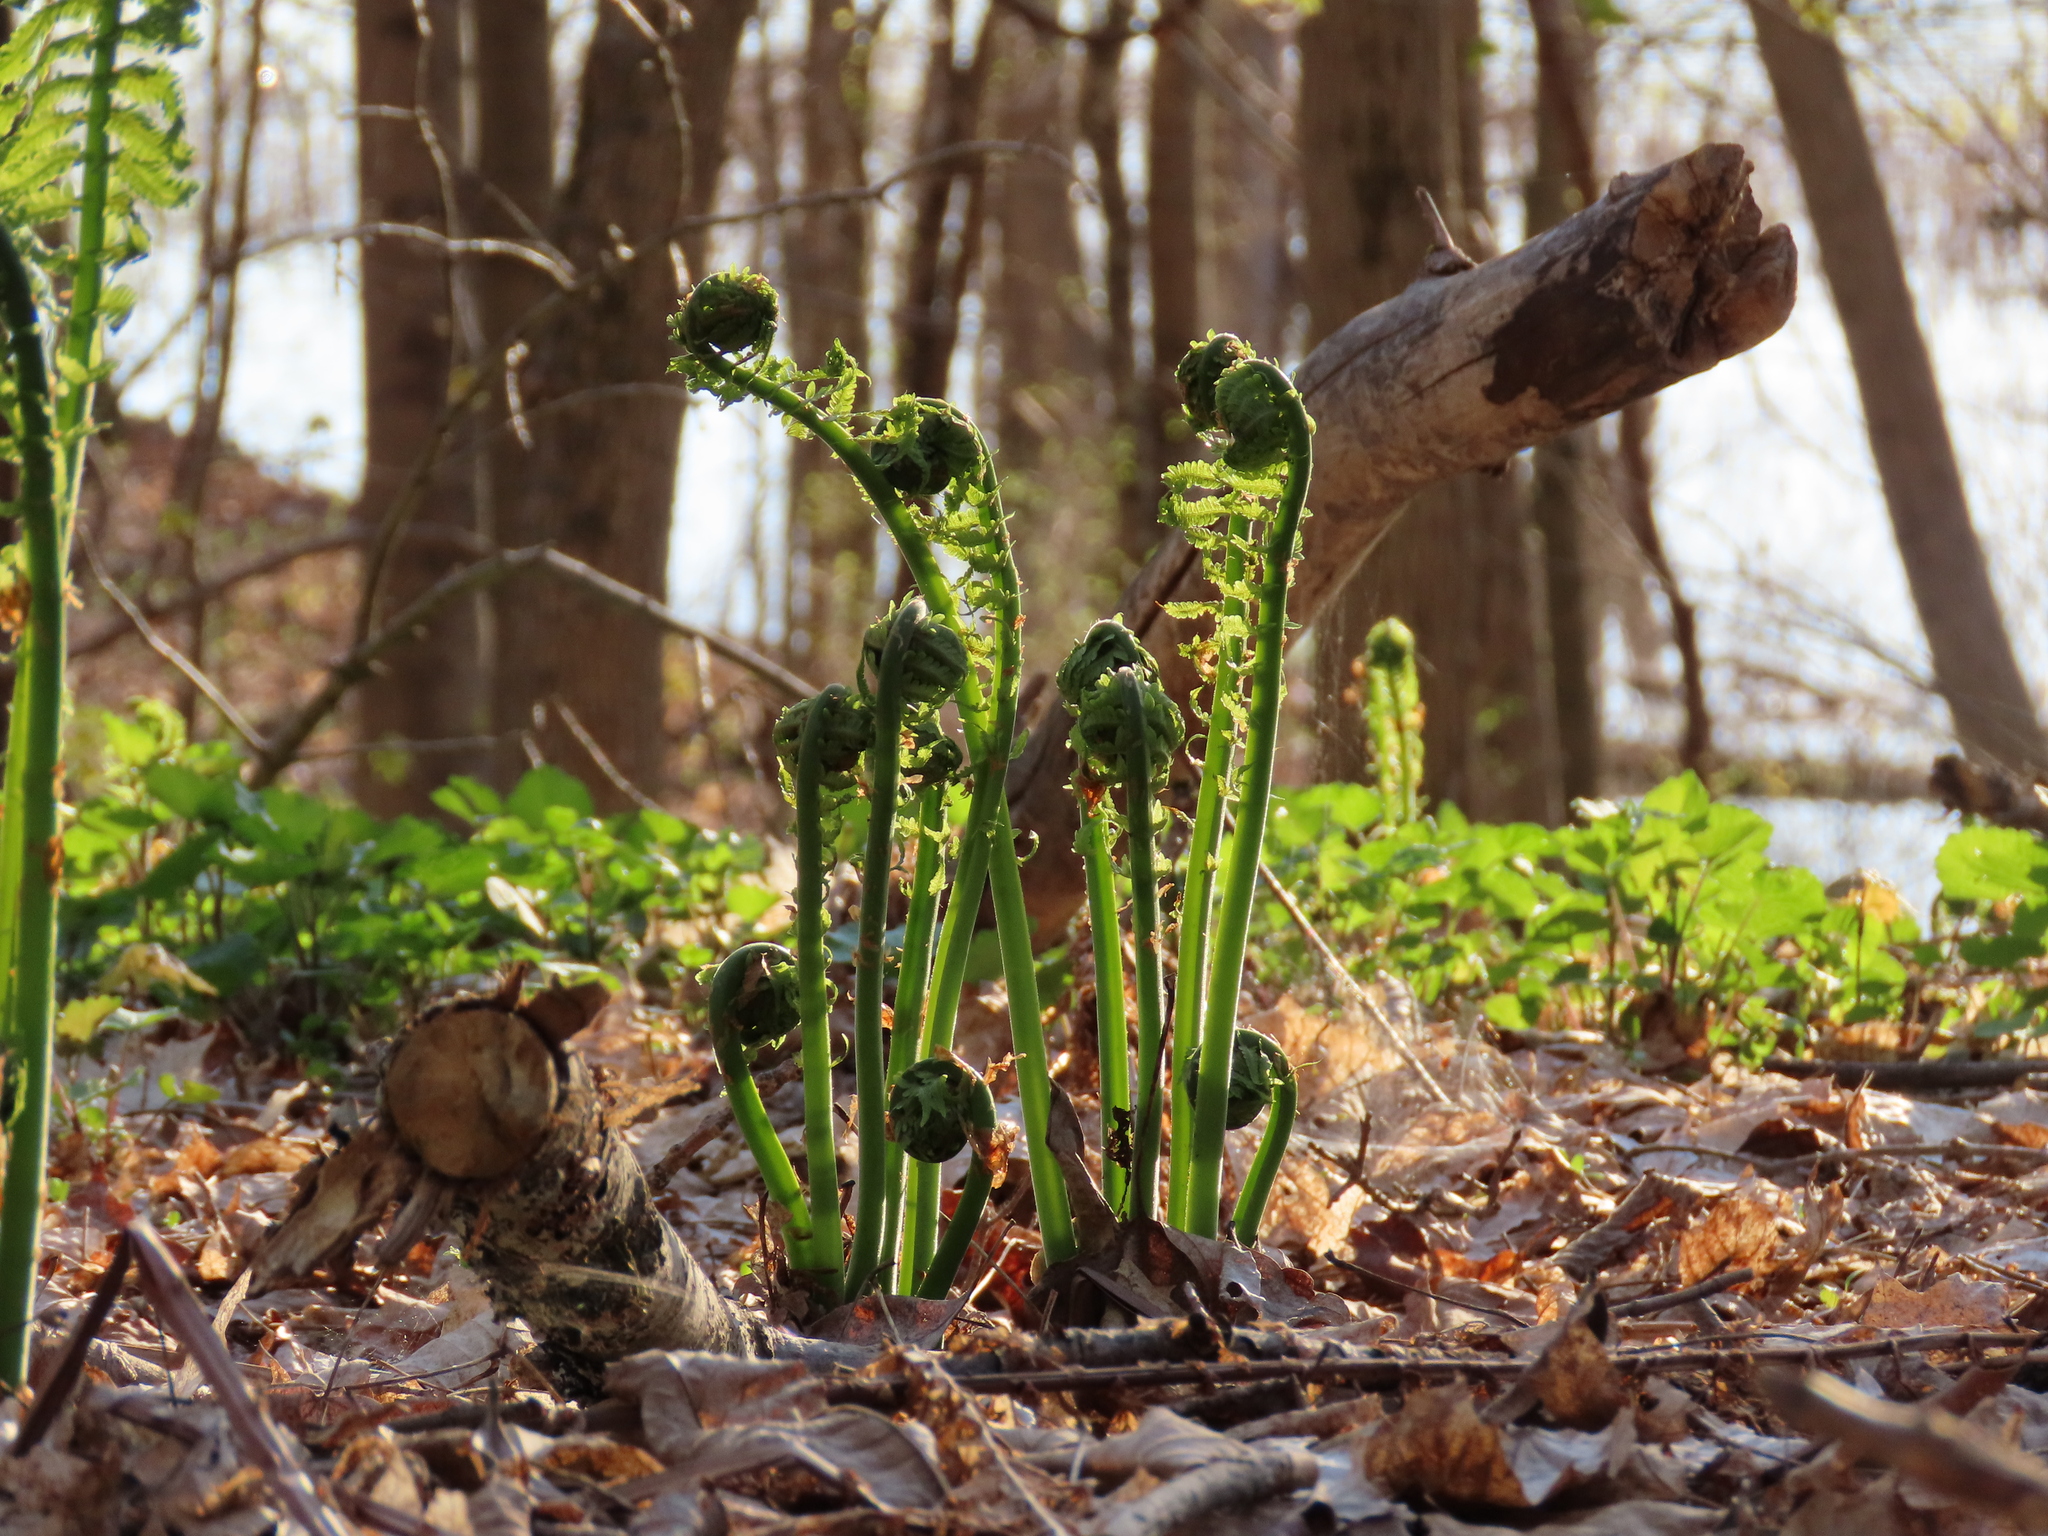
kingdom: Plantae
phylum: Tracheophyta
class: Polypodiopsida
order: Polypodiales
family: Onocleaceae
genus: Matteuccia
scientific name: Matteuccia struthiopteris
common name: Ostrich fern
